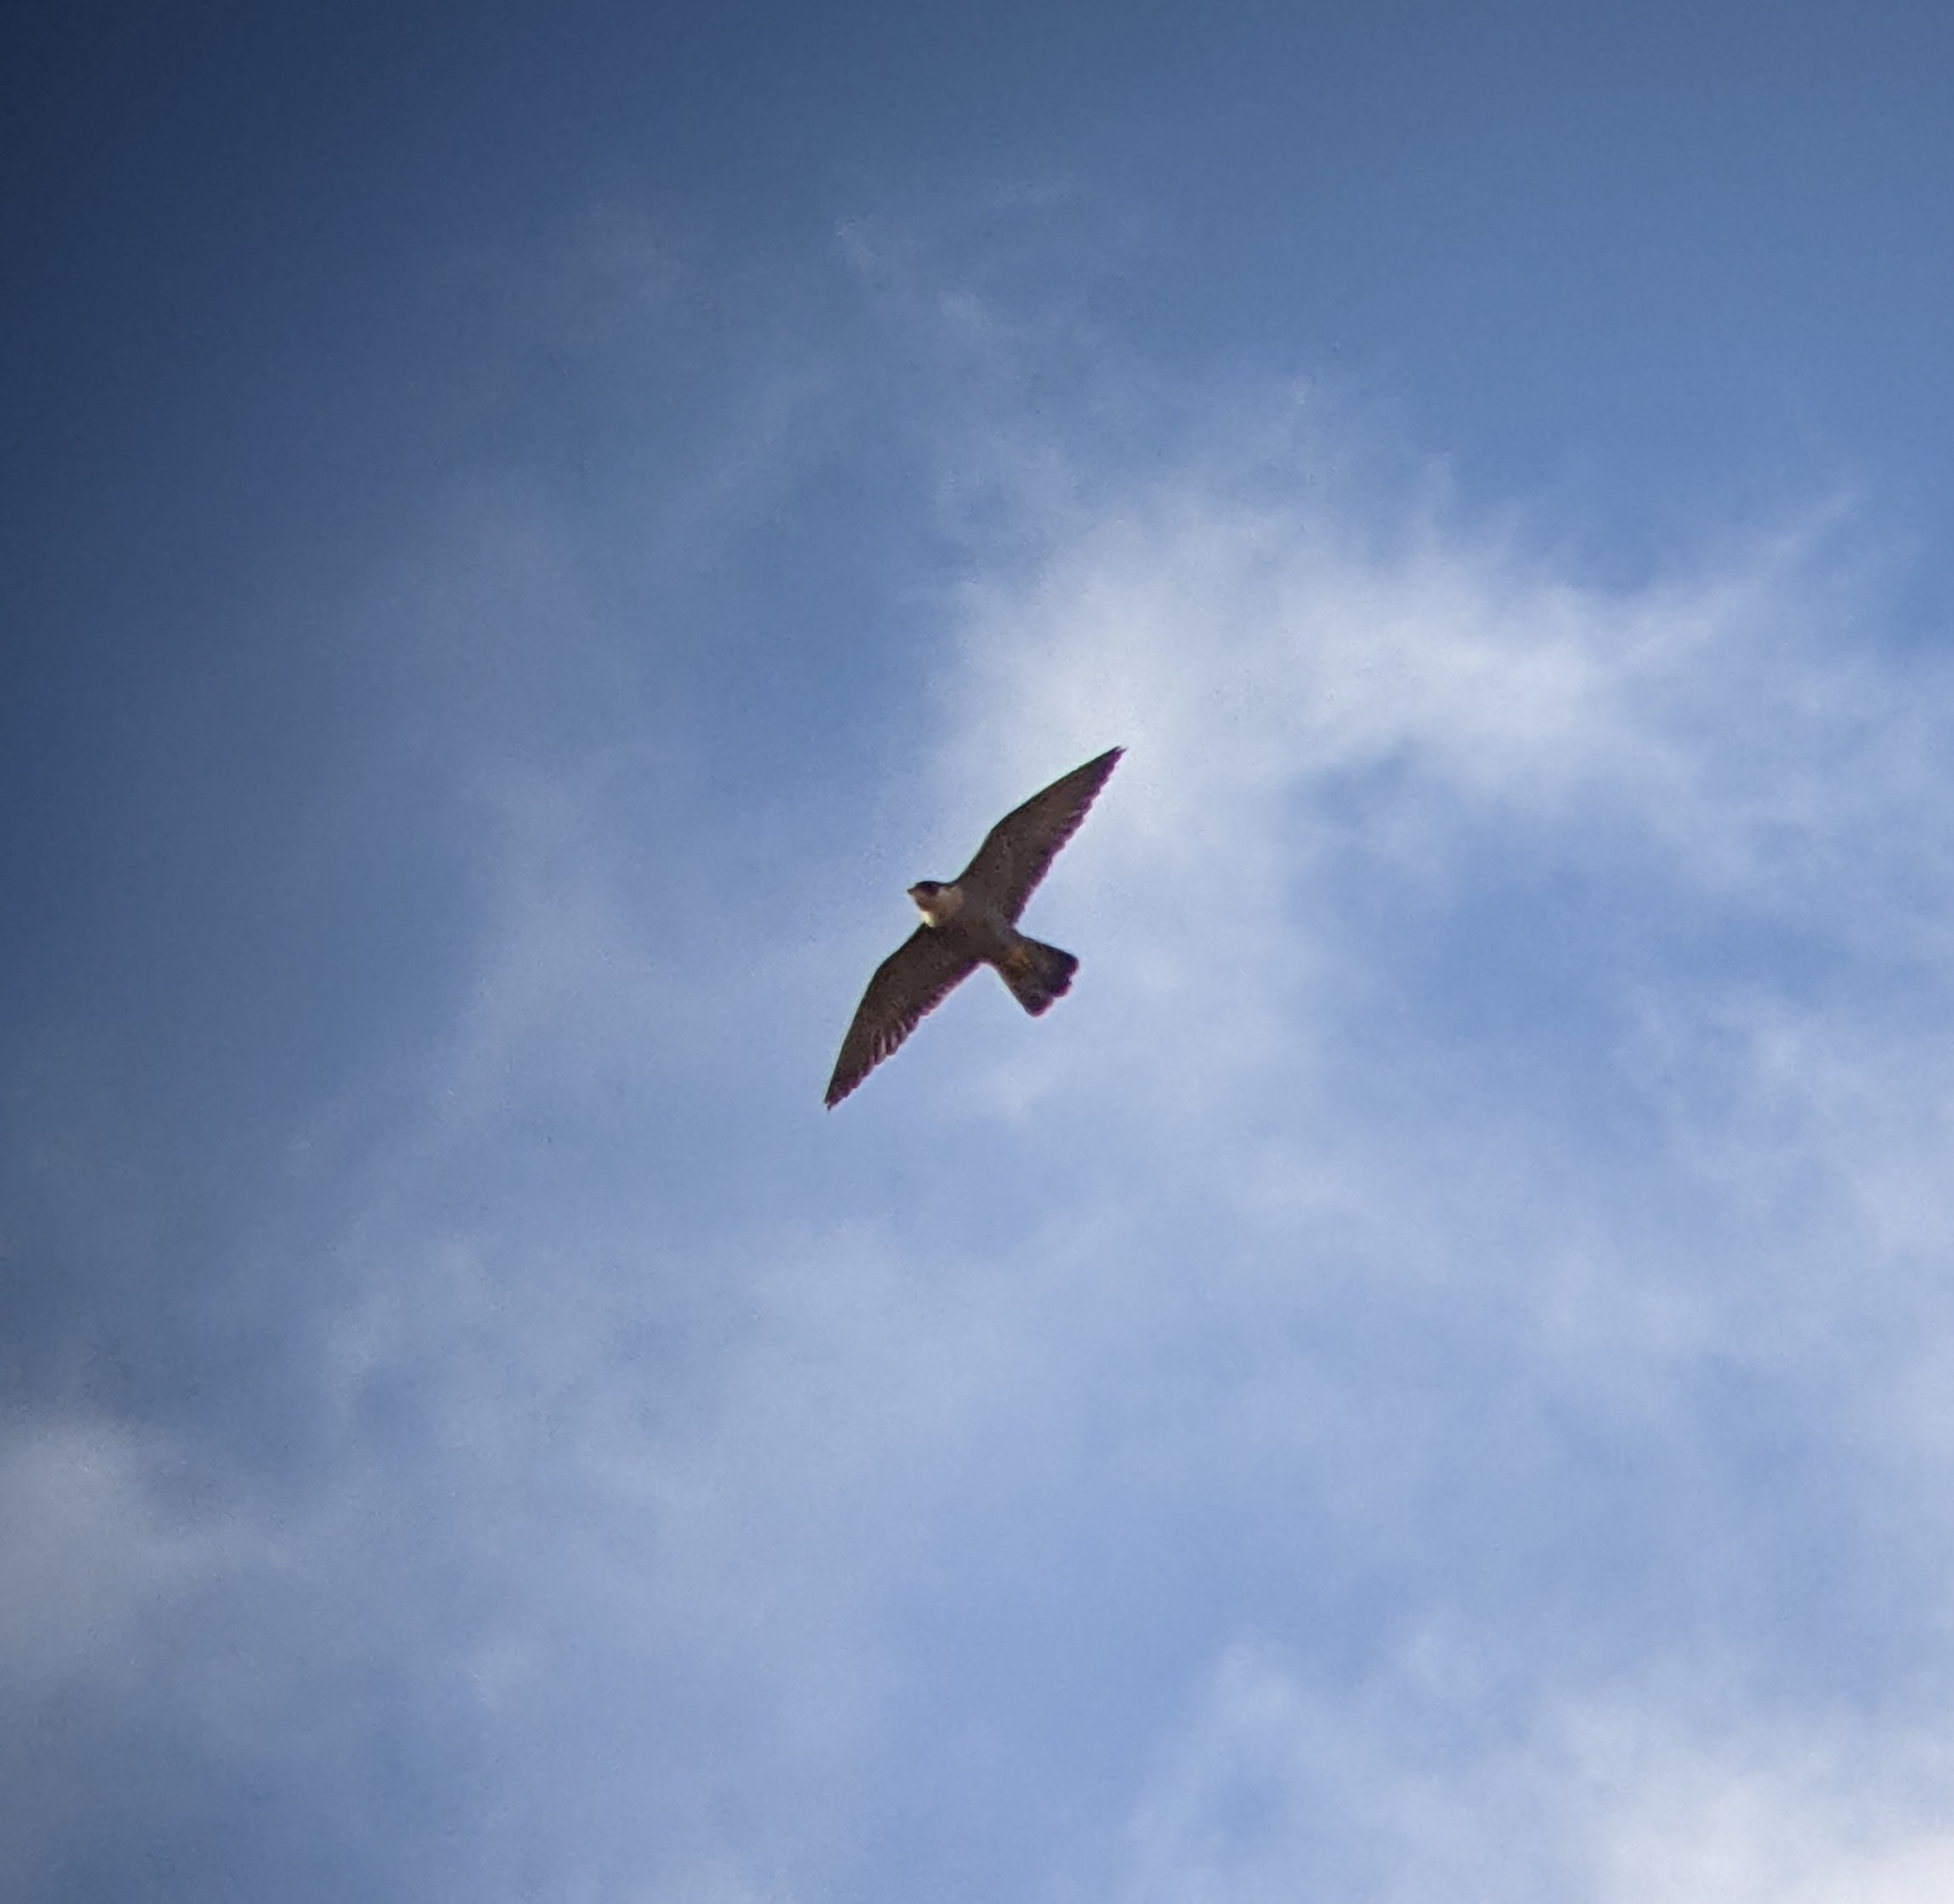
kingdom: Animalia
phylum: Chordata
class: Aves
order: Falconiformes
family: Falconidae
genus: Falco
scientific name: Falco peregrinus
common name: Peregrine falcon
